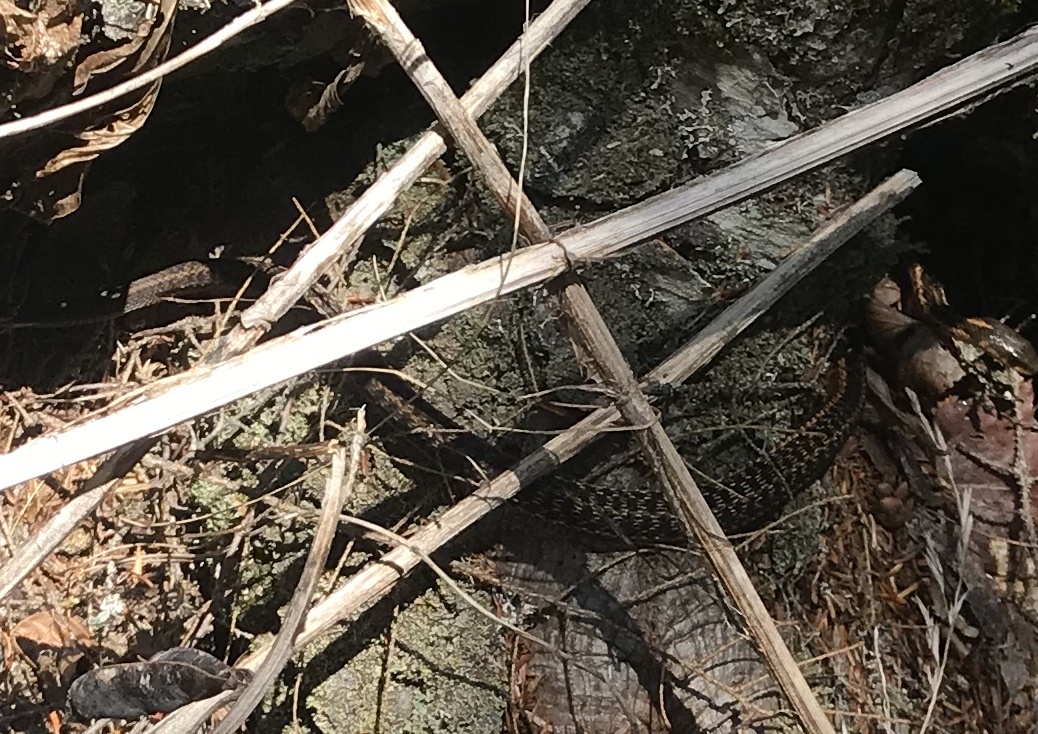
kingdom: Animalia
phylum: Chordata
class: Squamata
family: Colubridae
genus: Thamnophis
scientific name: Thamnophis sirtalis
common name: Common garter snake
